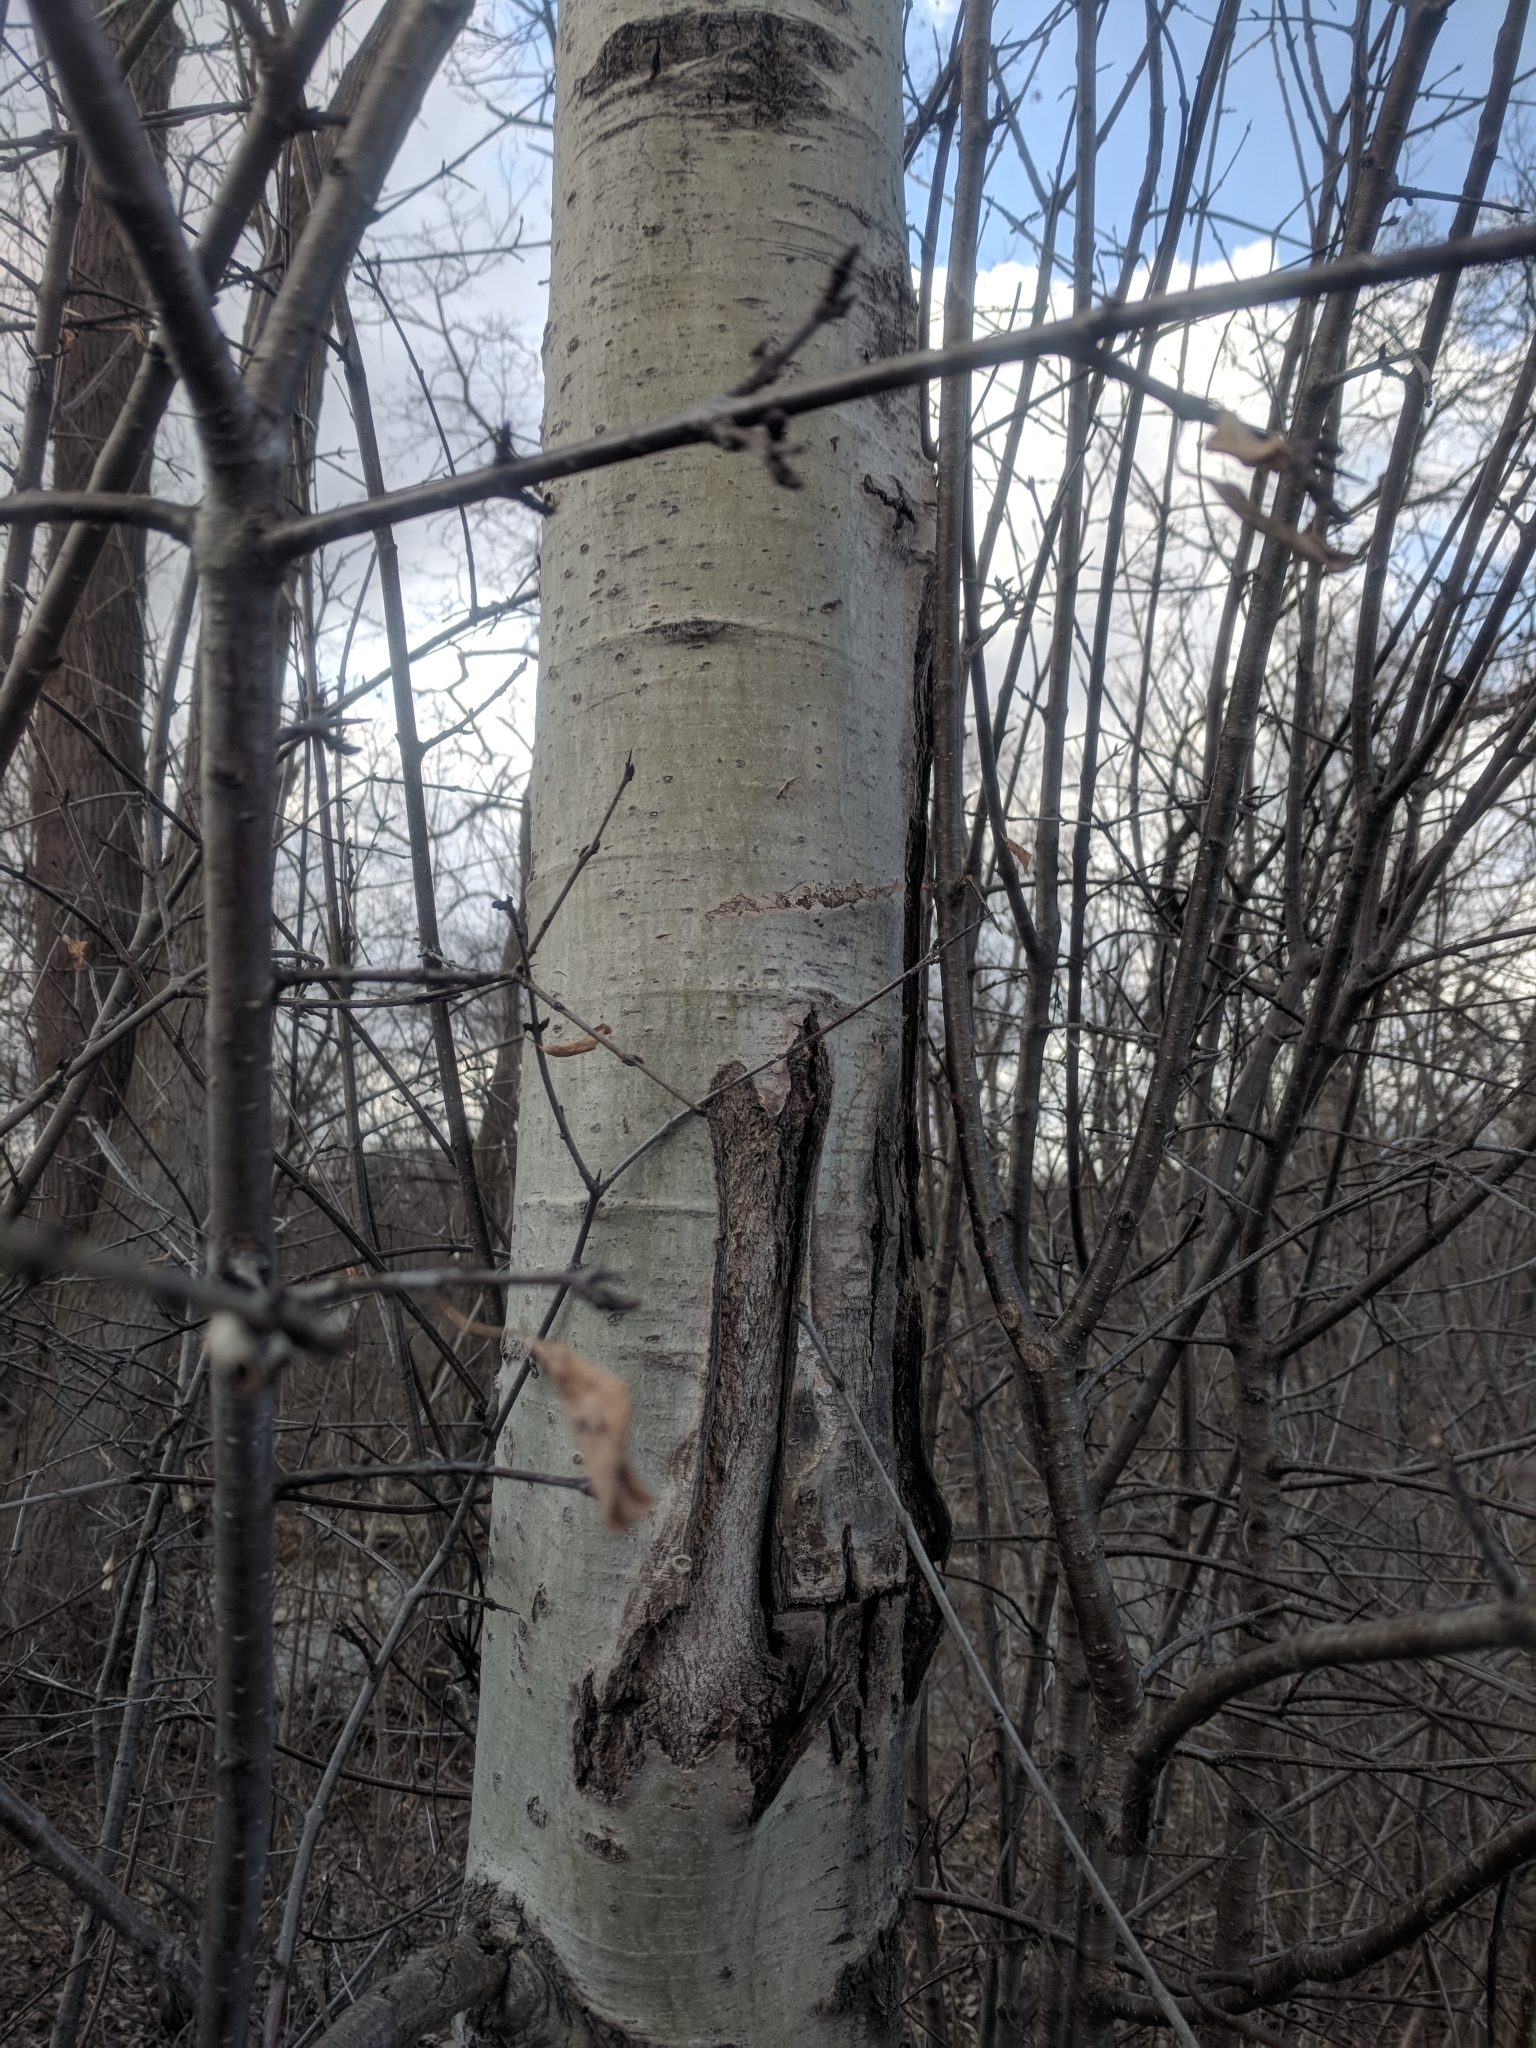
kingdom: Plantae
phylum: Tracheophyta
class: Magnoliopsida
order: Malpighiales
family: Salicaceae
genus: Populus
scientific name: Populus
